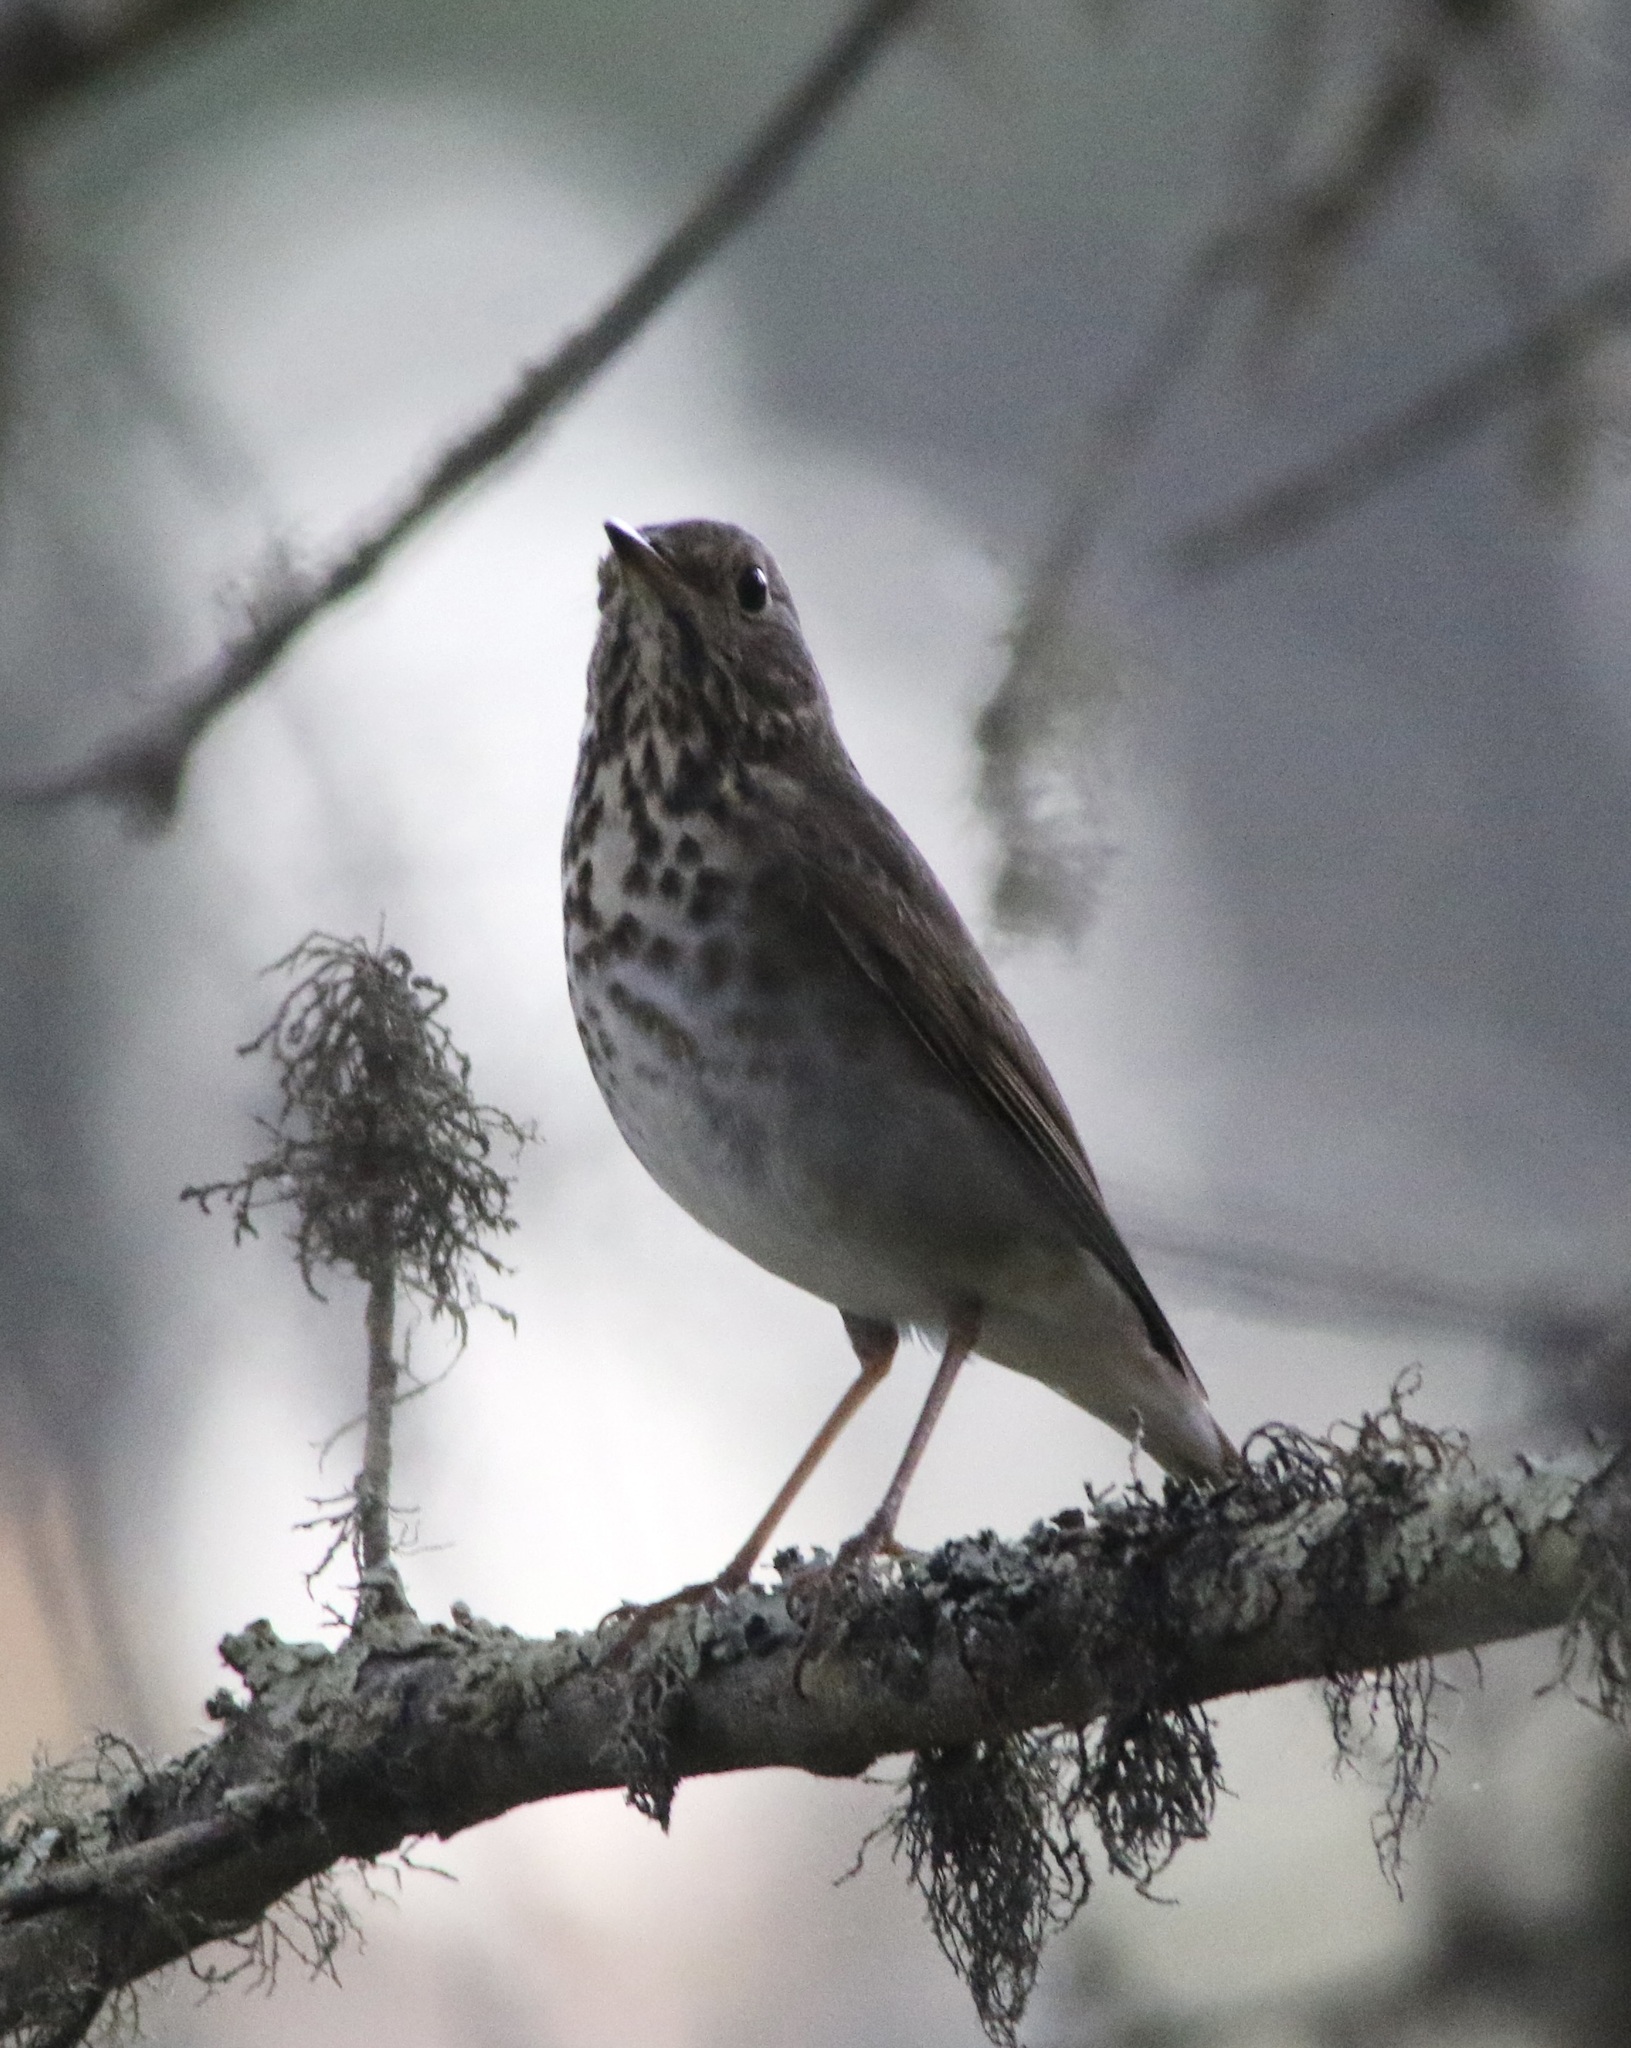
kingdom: Animalia
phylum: Chordata
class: Aves
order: Passeriformes
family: Turdidae
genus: Catharus
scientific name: Catharus guttatus
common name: Hermit thrush
